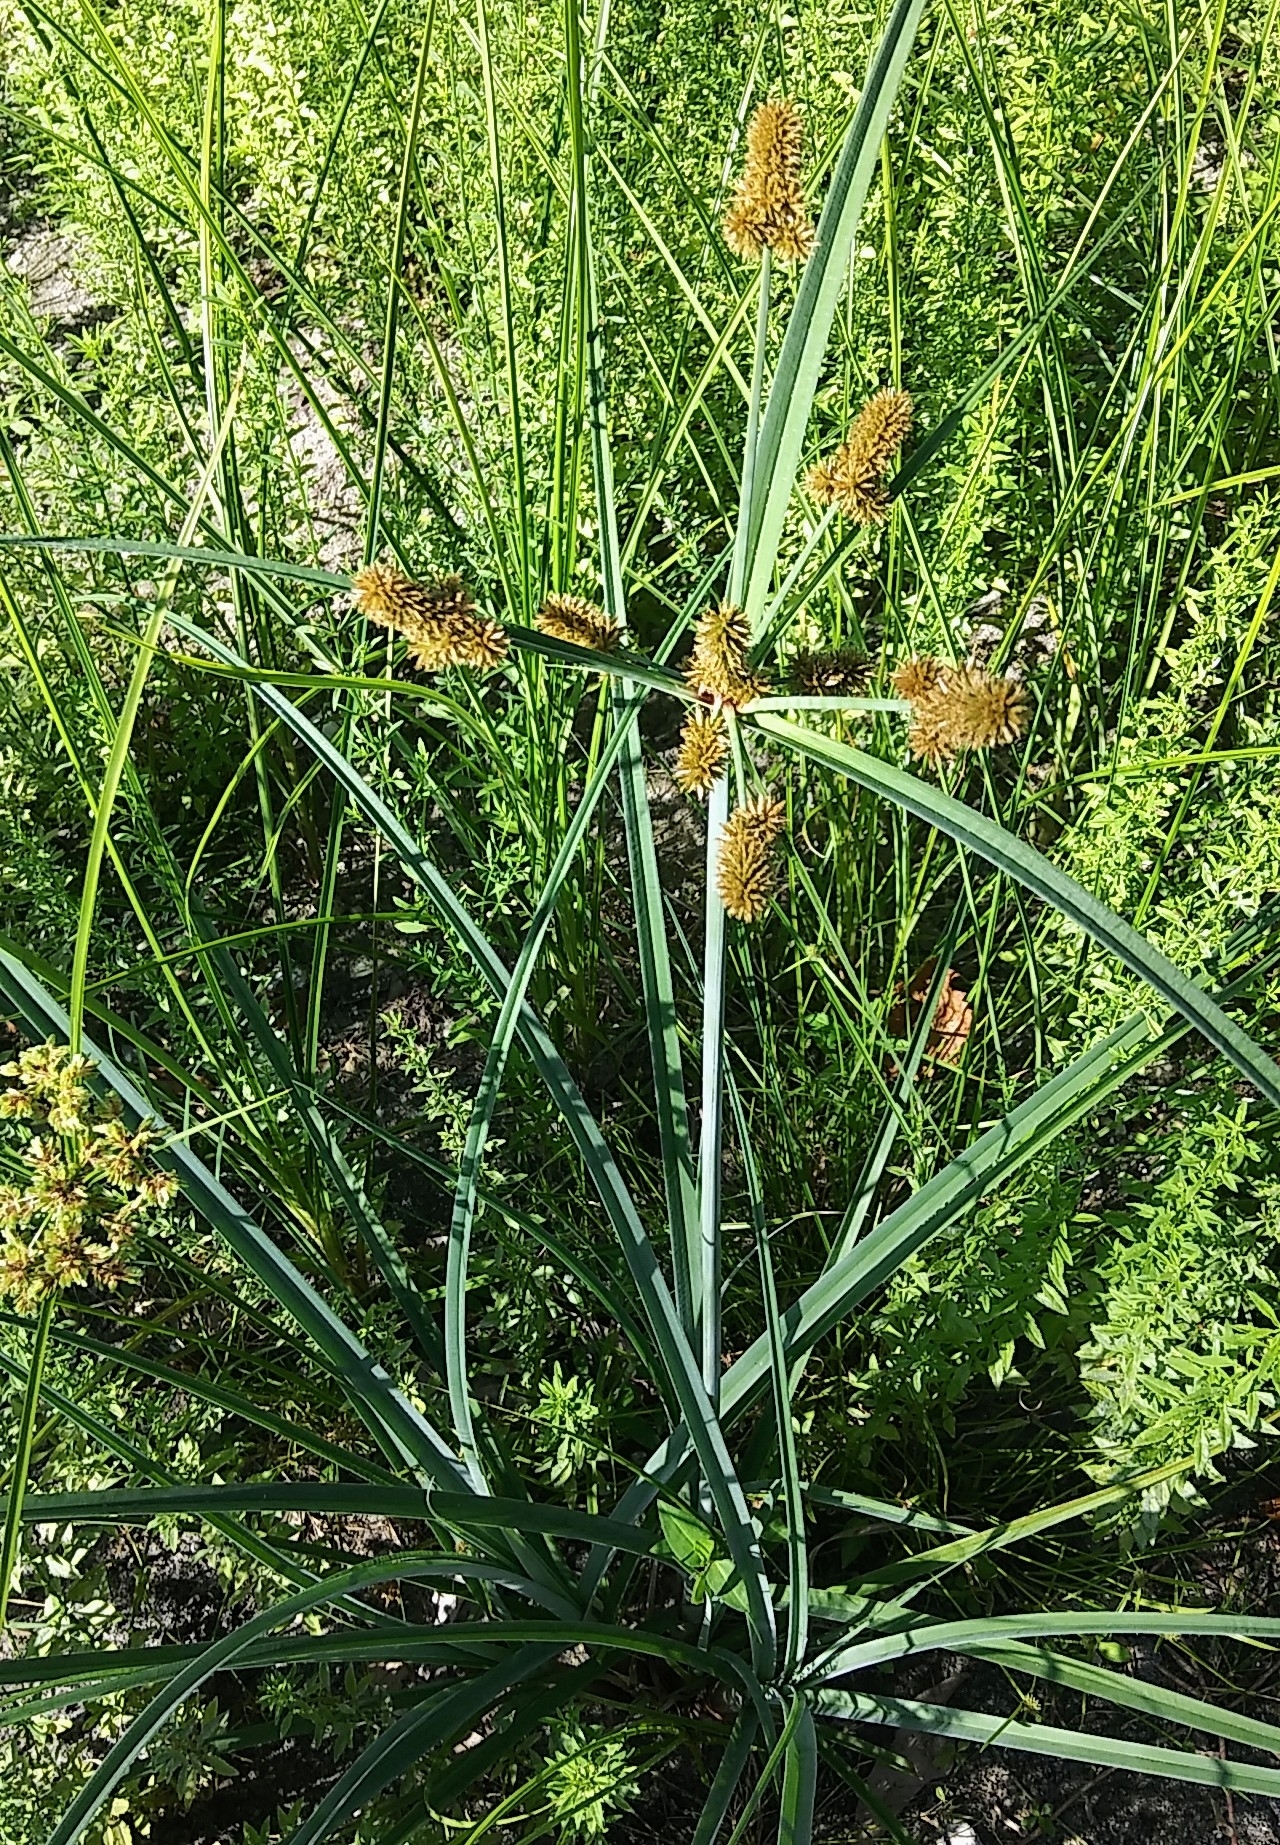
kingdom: Plantae
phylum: Tracheophyta
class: Liliopsida
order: Poales
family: Cyperaceae
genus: Cyperus
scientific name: Cyperus ligularis
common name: Swamp flat sedge
